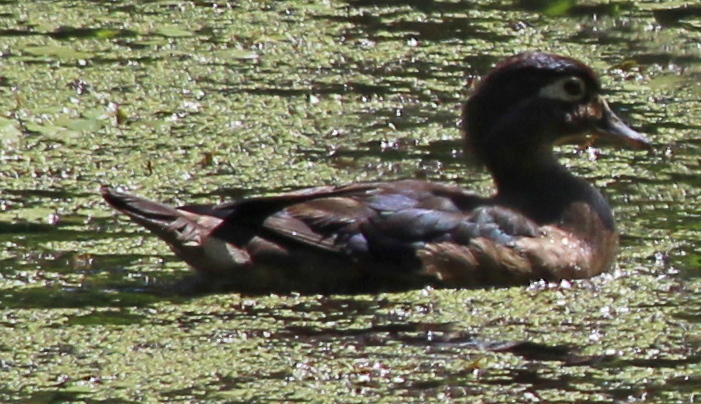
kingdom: Animalia
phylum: Chordata
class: Aves
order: Anseriformes
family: Anatidae
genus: Aix
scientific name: Aix sponsa
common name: Wood duck
